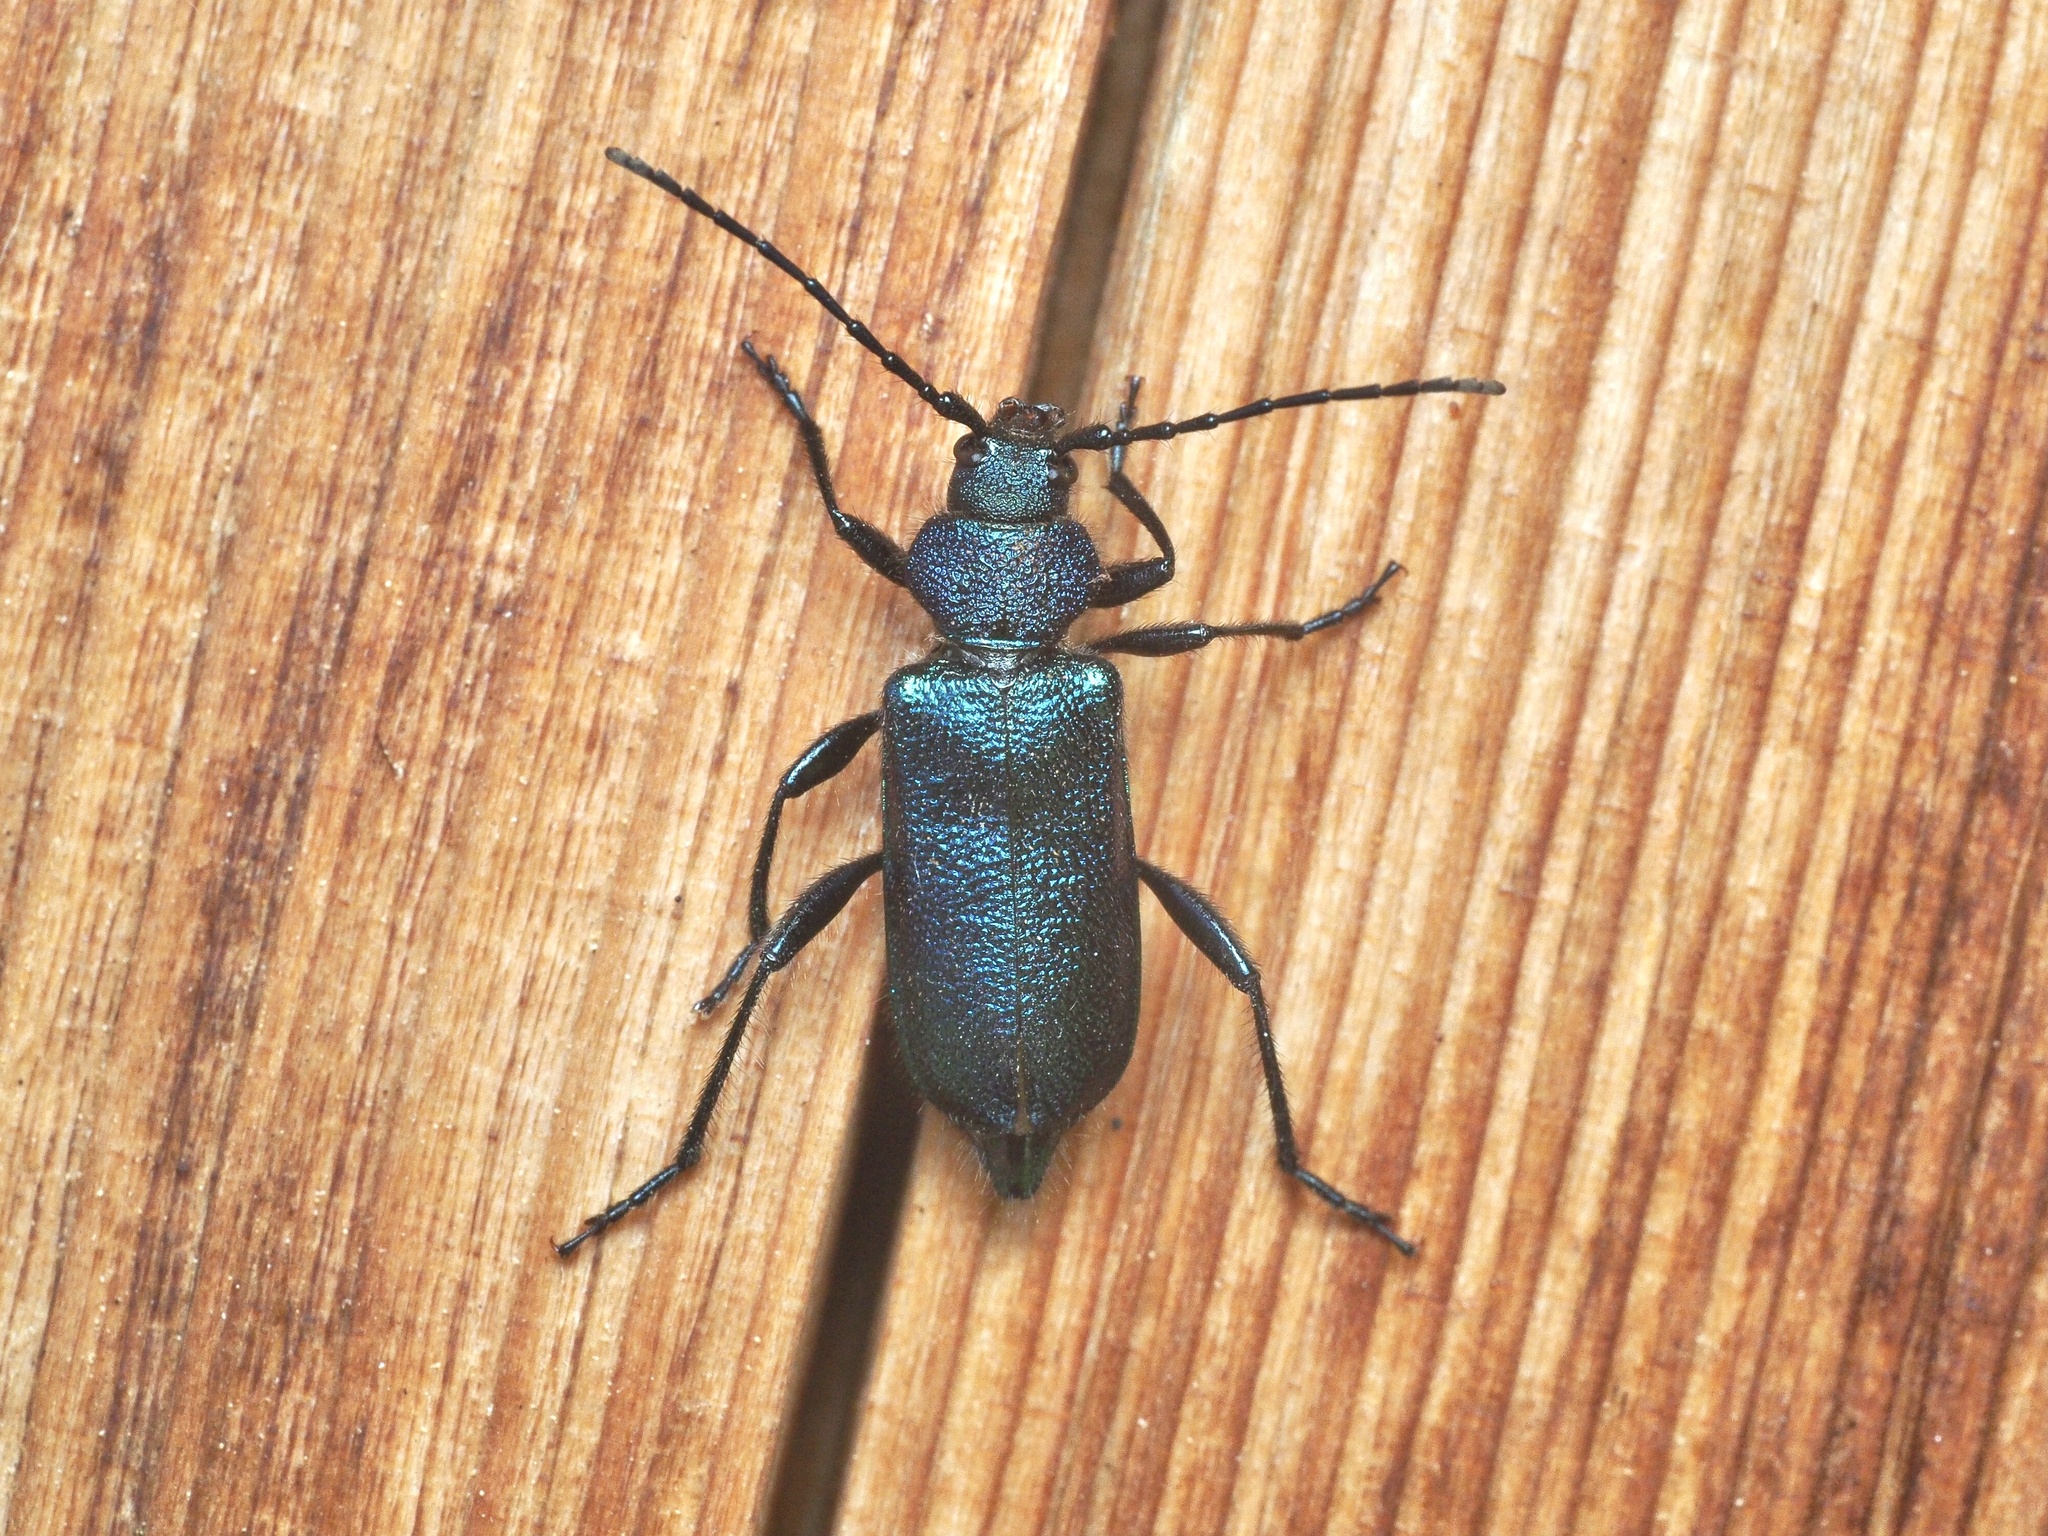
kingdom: Animalia
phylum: Arthropoda
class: Insecta
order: Coleoptera
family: Cerambycidae
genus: Callidium
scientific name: Callidium violaceum
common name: Violet tanbark beetle
